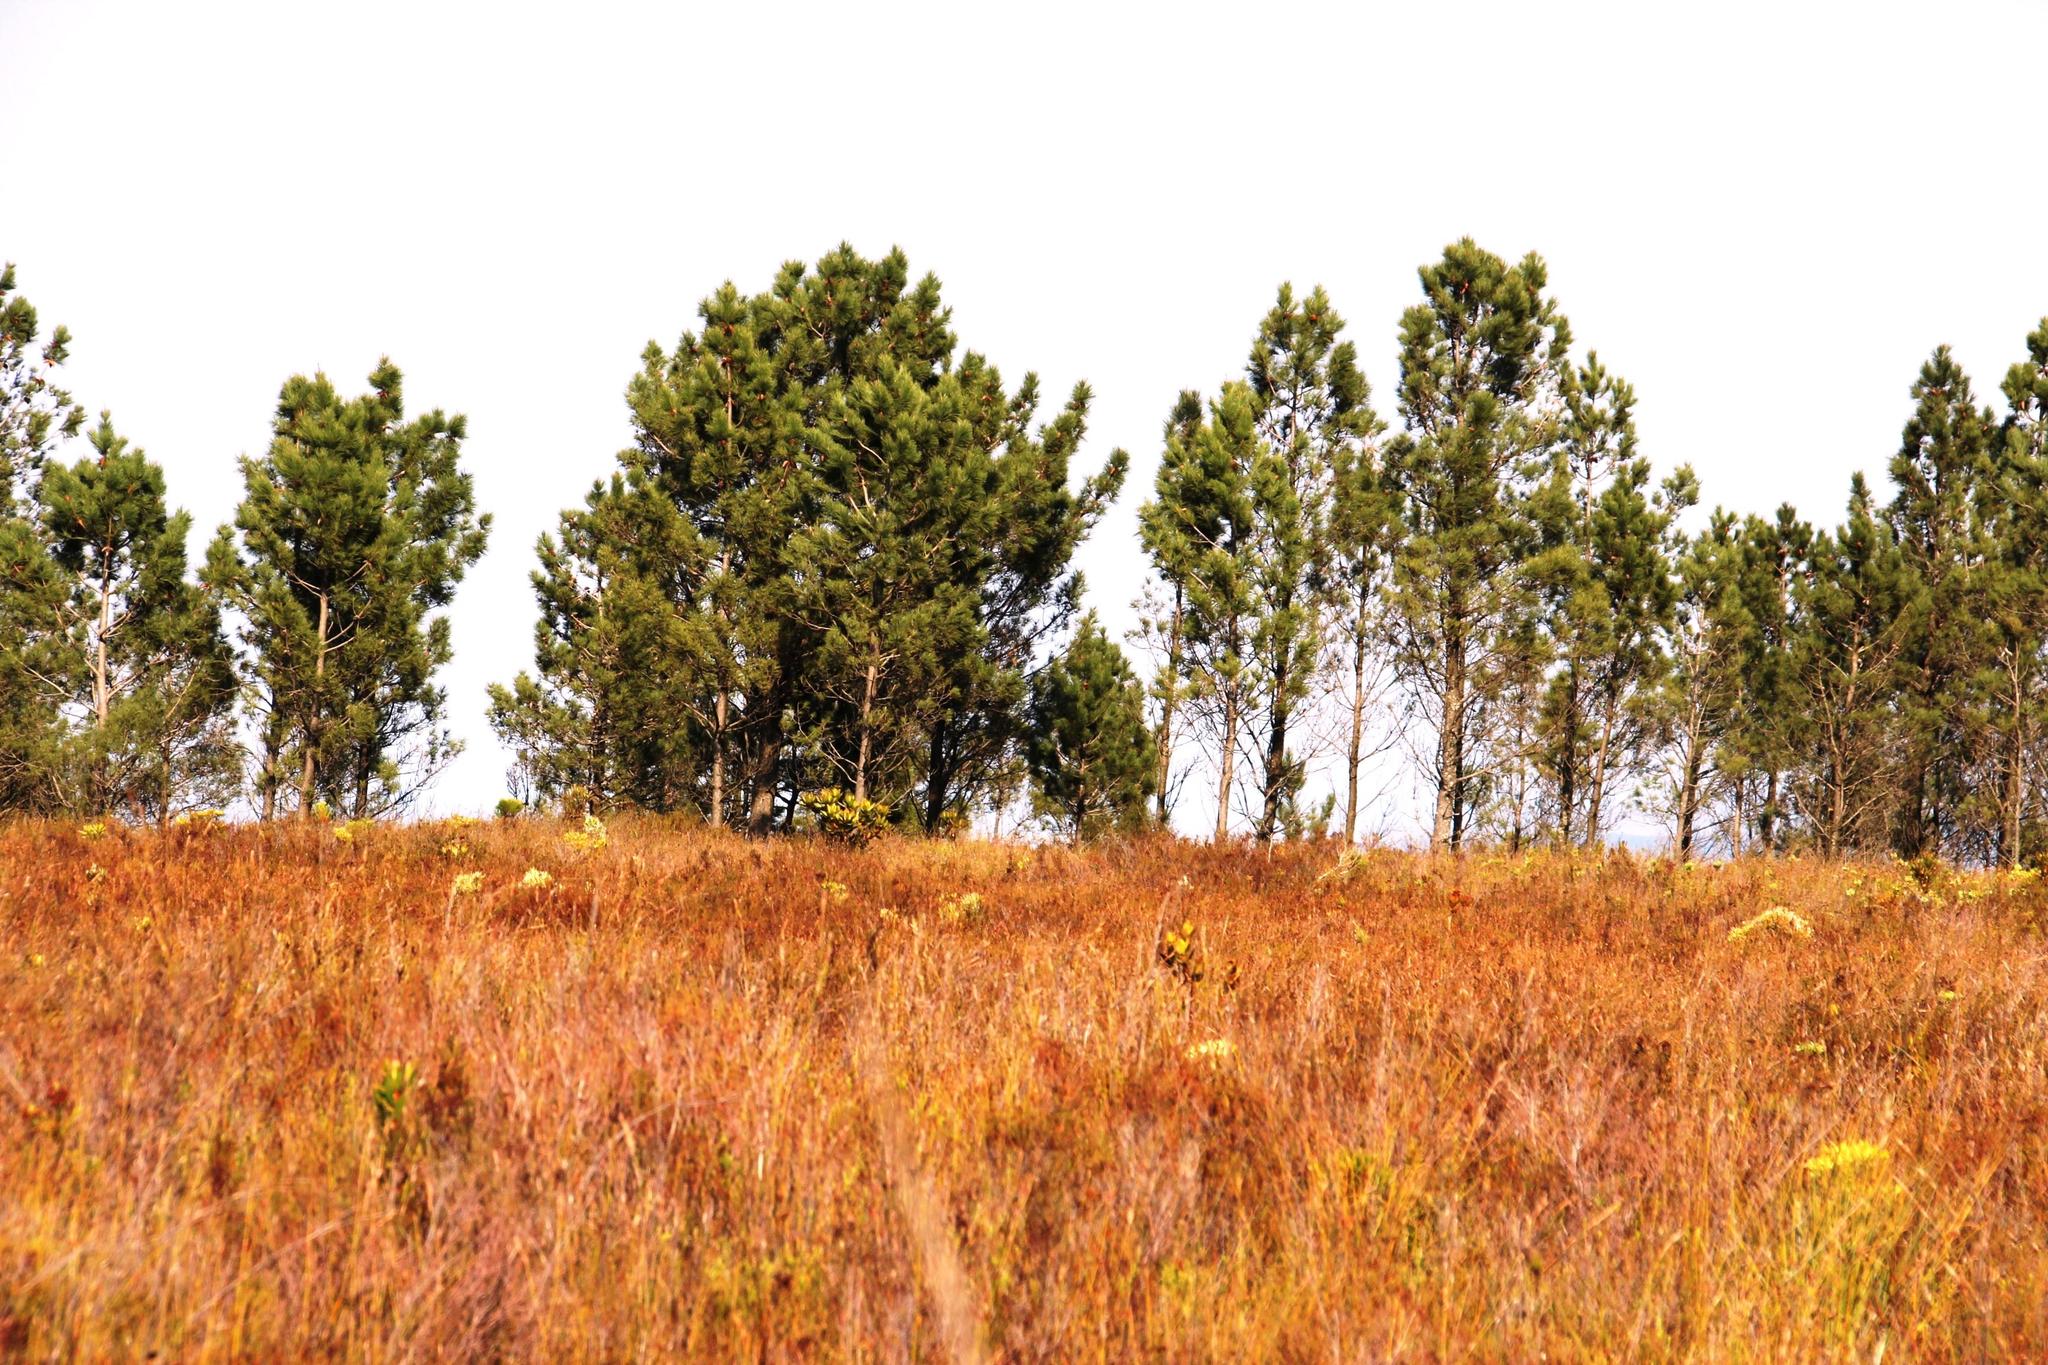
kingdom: Plantae
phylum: Tracheophyta
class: Pinopsida
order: Pinales
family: Pinaceae
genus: Pinus
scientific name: Pinus pinaster
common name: Maritime pine
